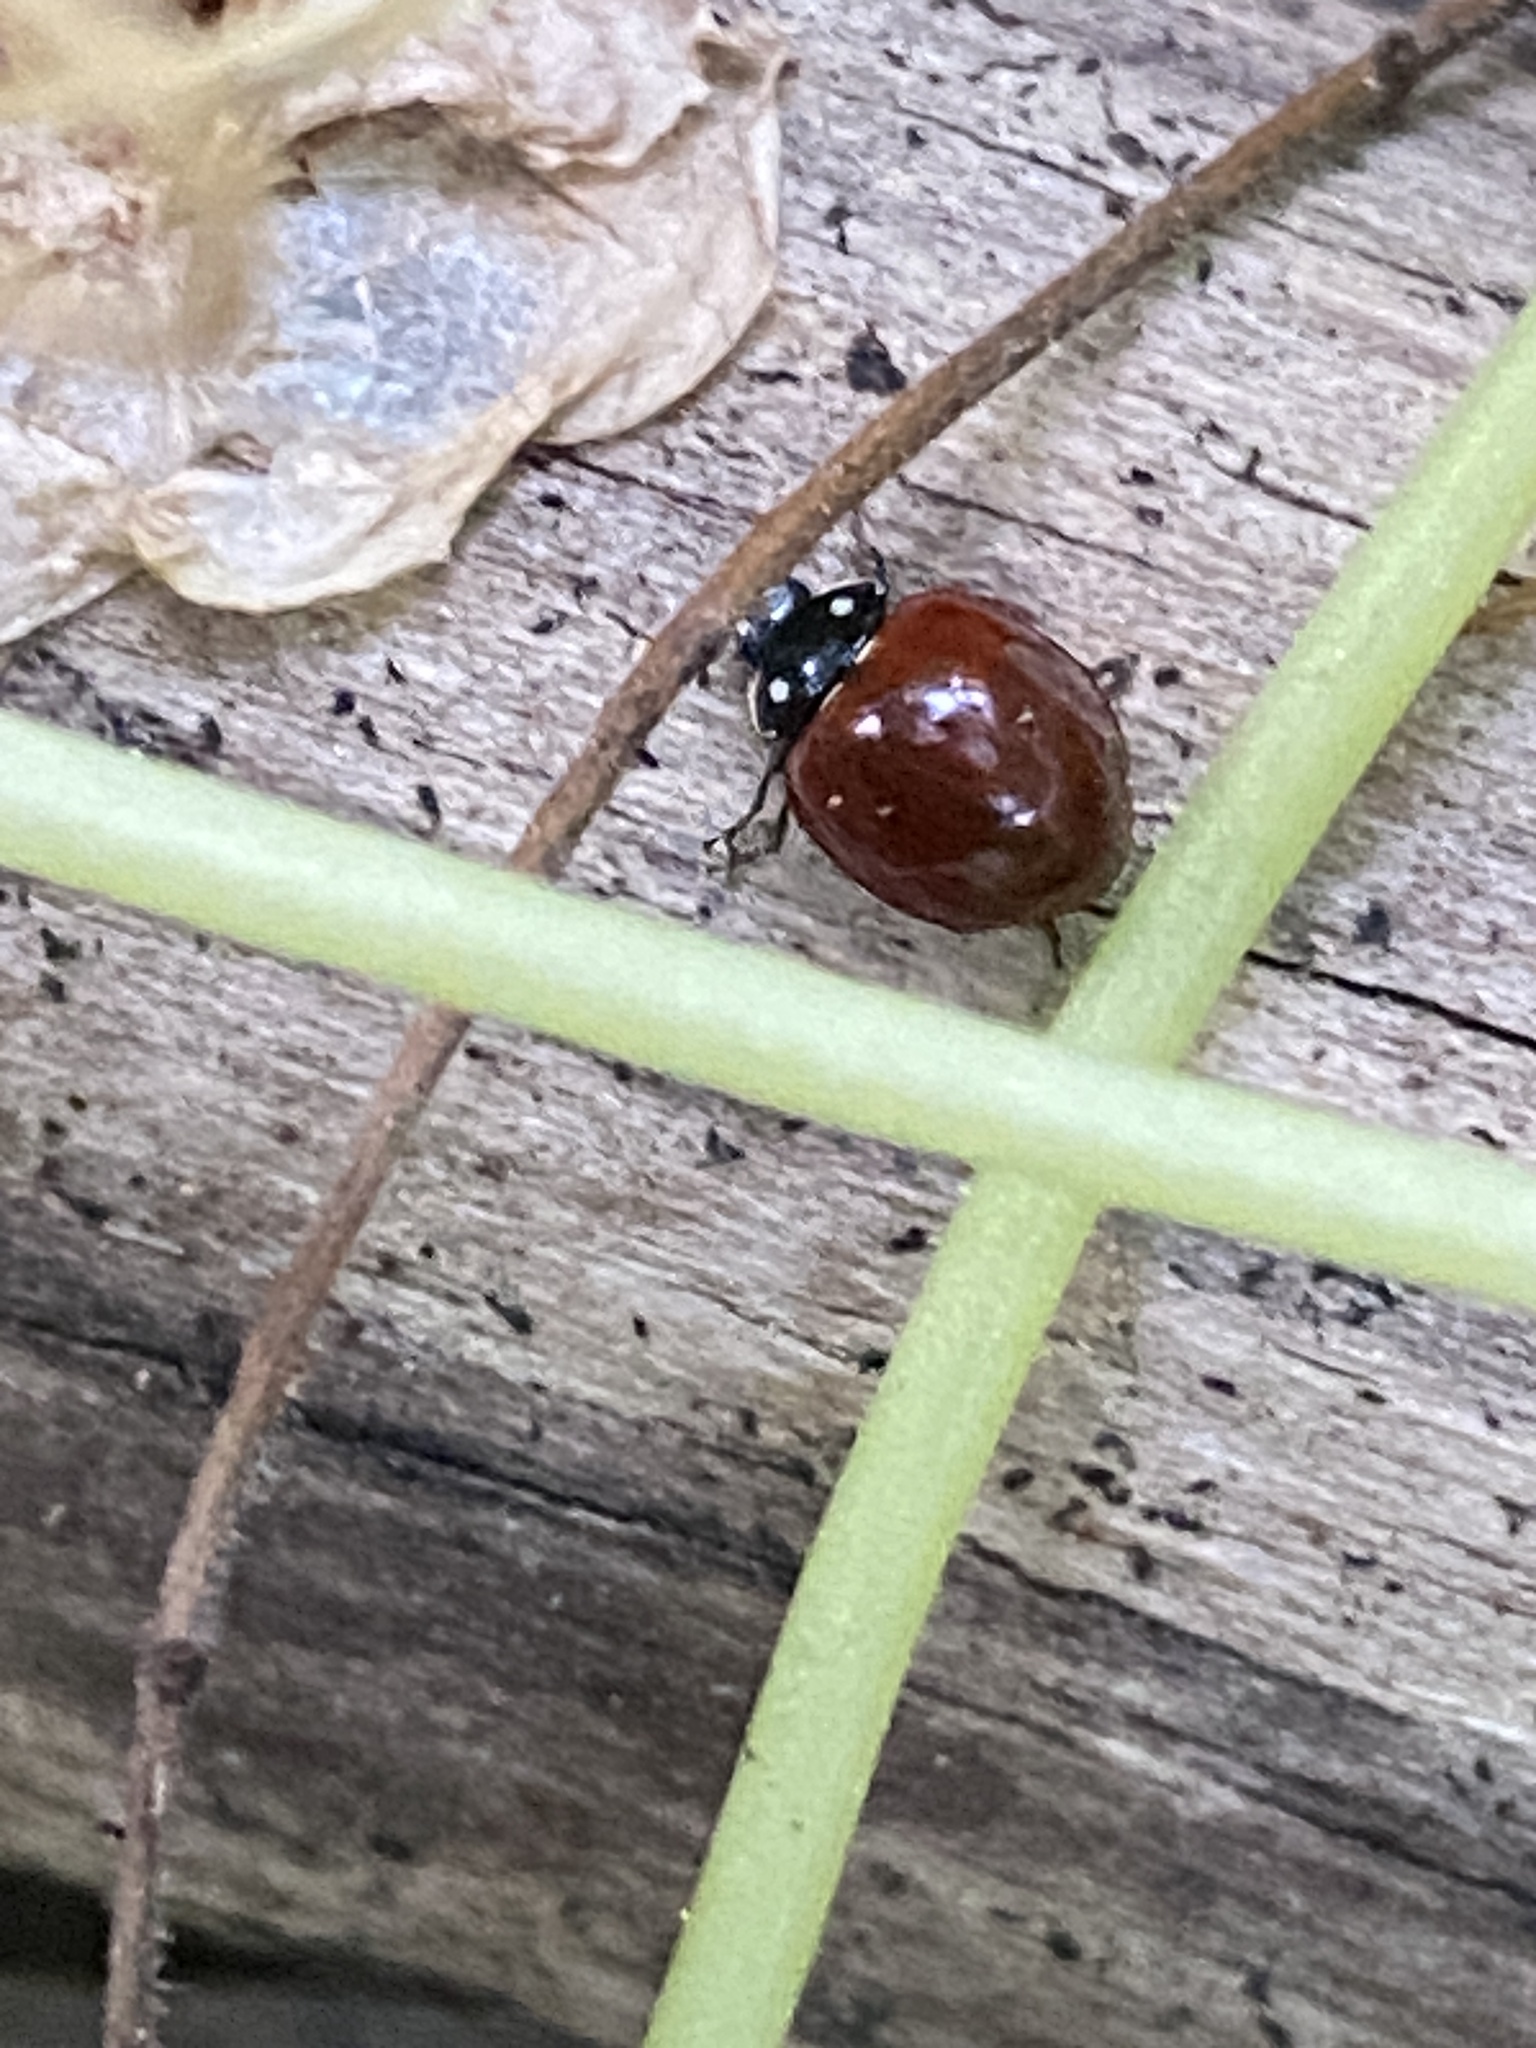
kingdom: Animalia
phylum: Arthropoda
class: Insecta
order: Coleoptera
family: Coccinellidae
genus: Cycloneda
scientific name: Cycloneda sanguinea
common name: Ladybird beetle
